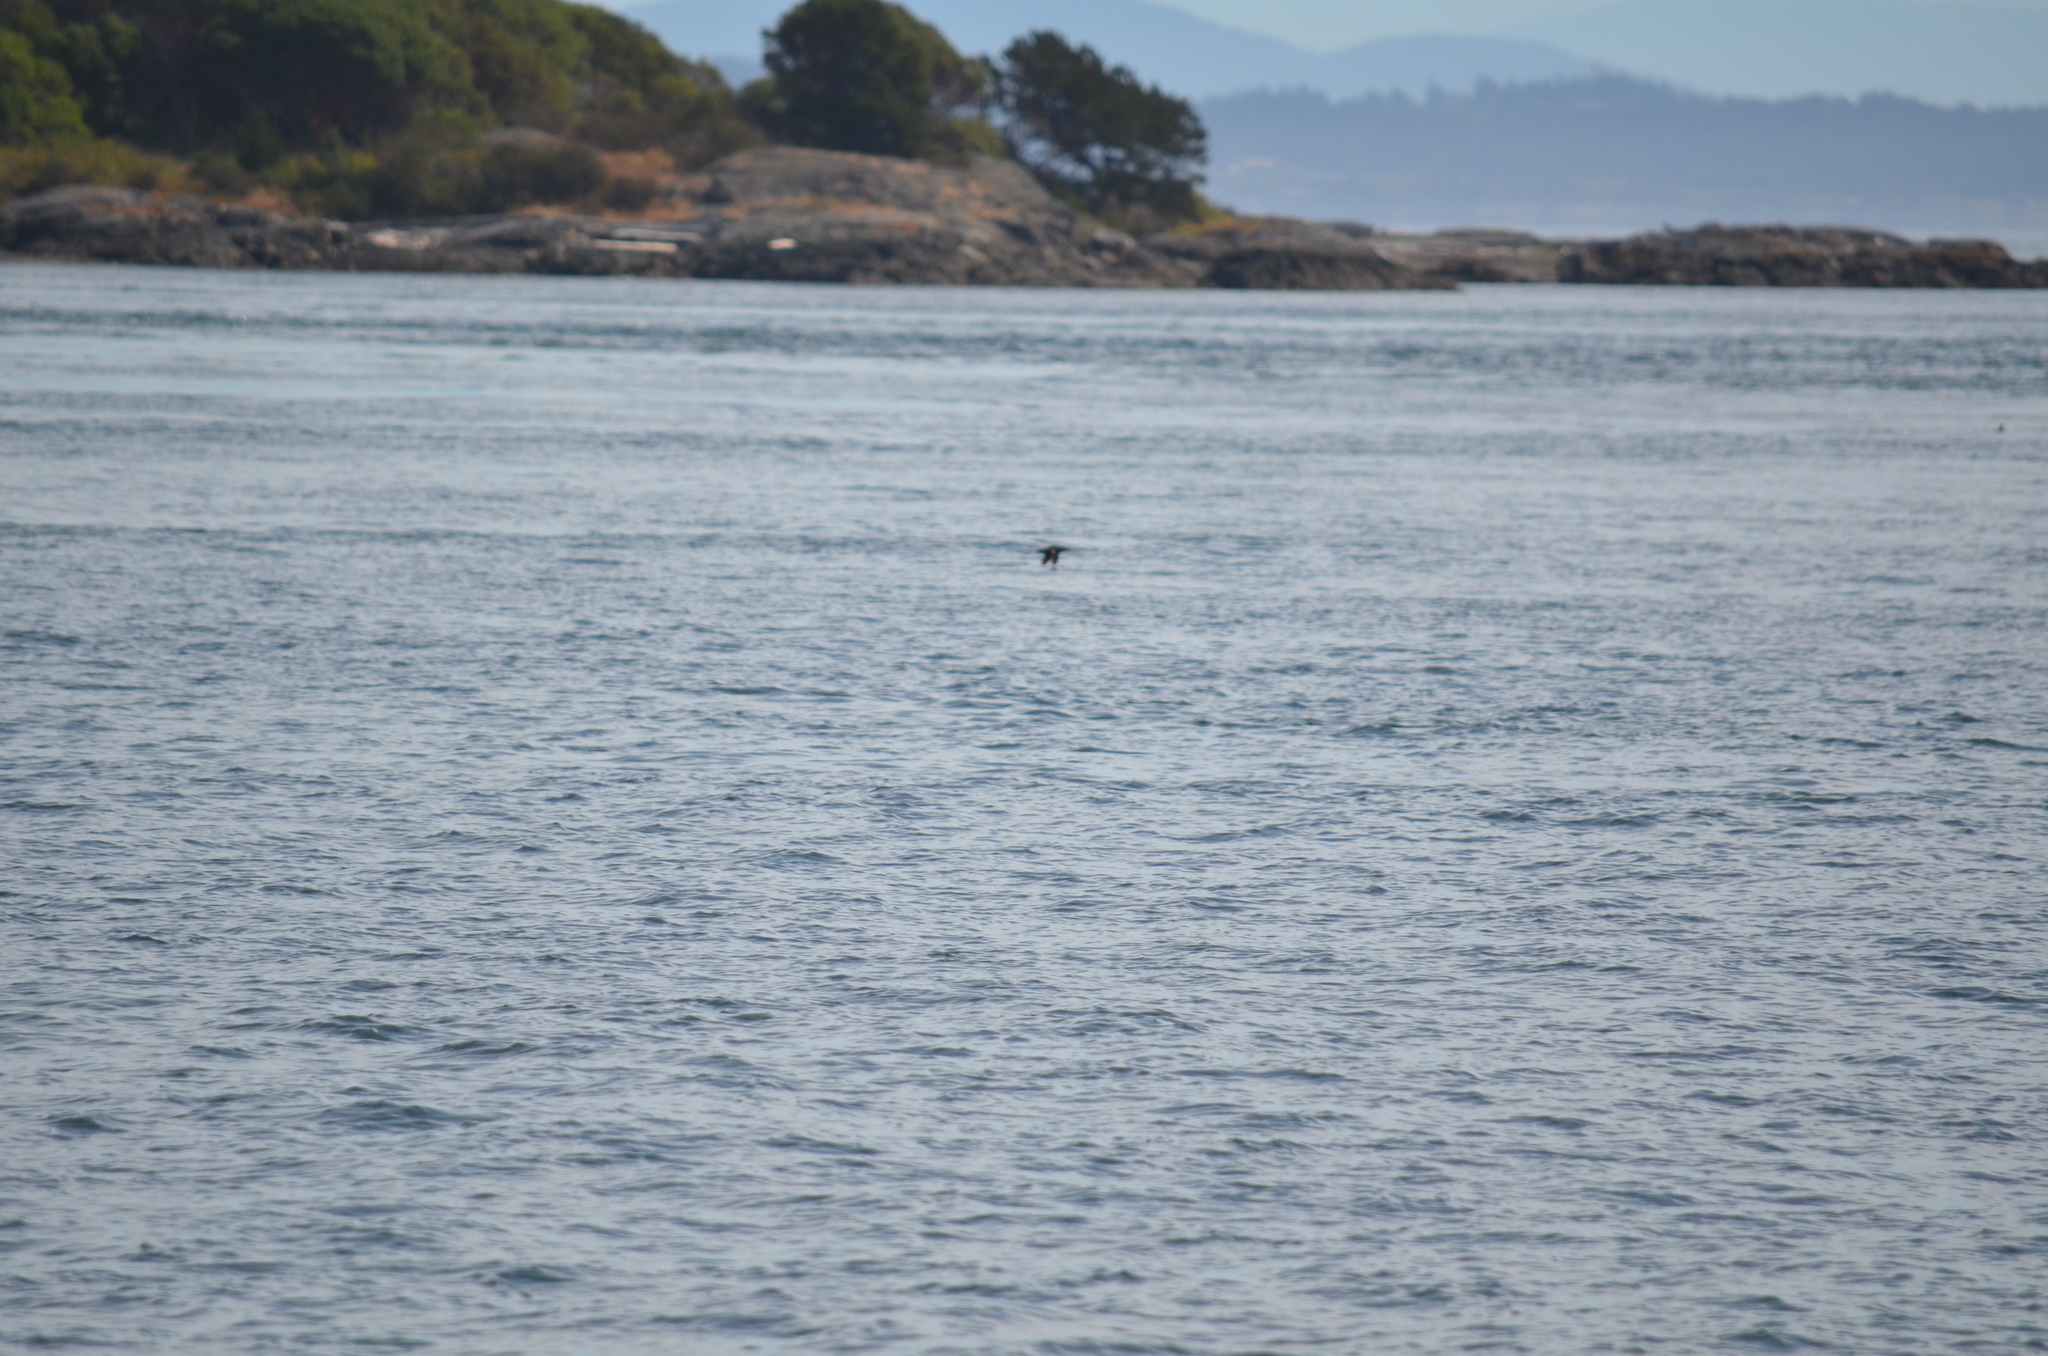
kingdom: Animalia
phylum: Chordata
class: Aves
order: Charadriiformes
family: Alcidae
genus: Cepphus
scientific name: Cepphus columba
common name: Pigeon guillemot
